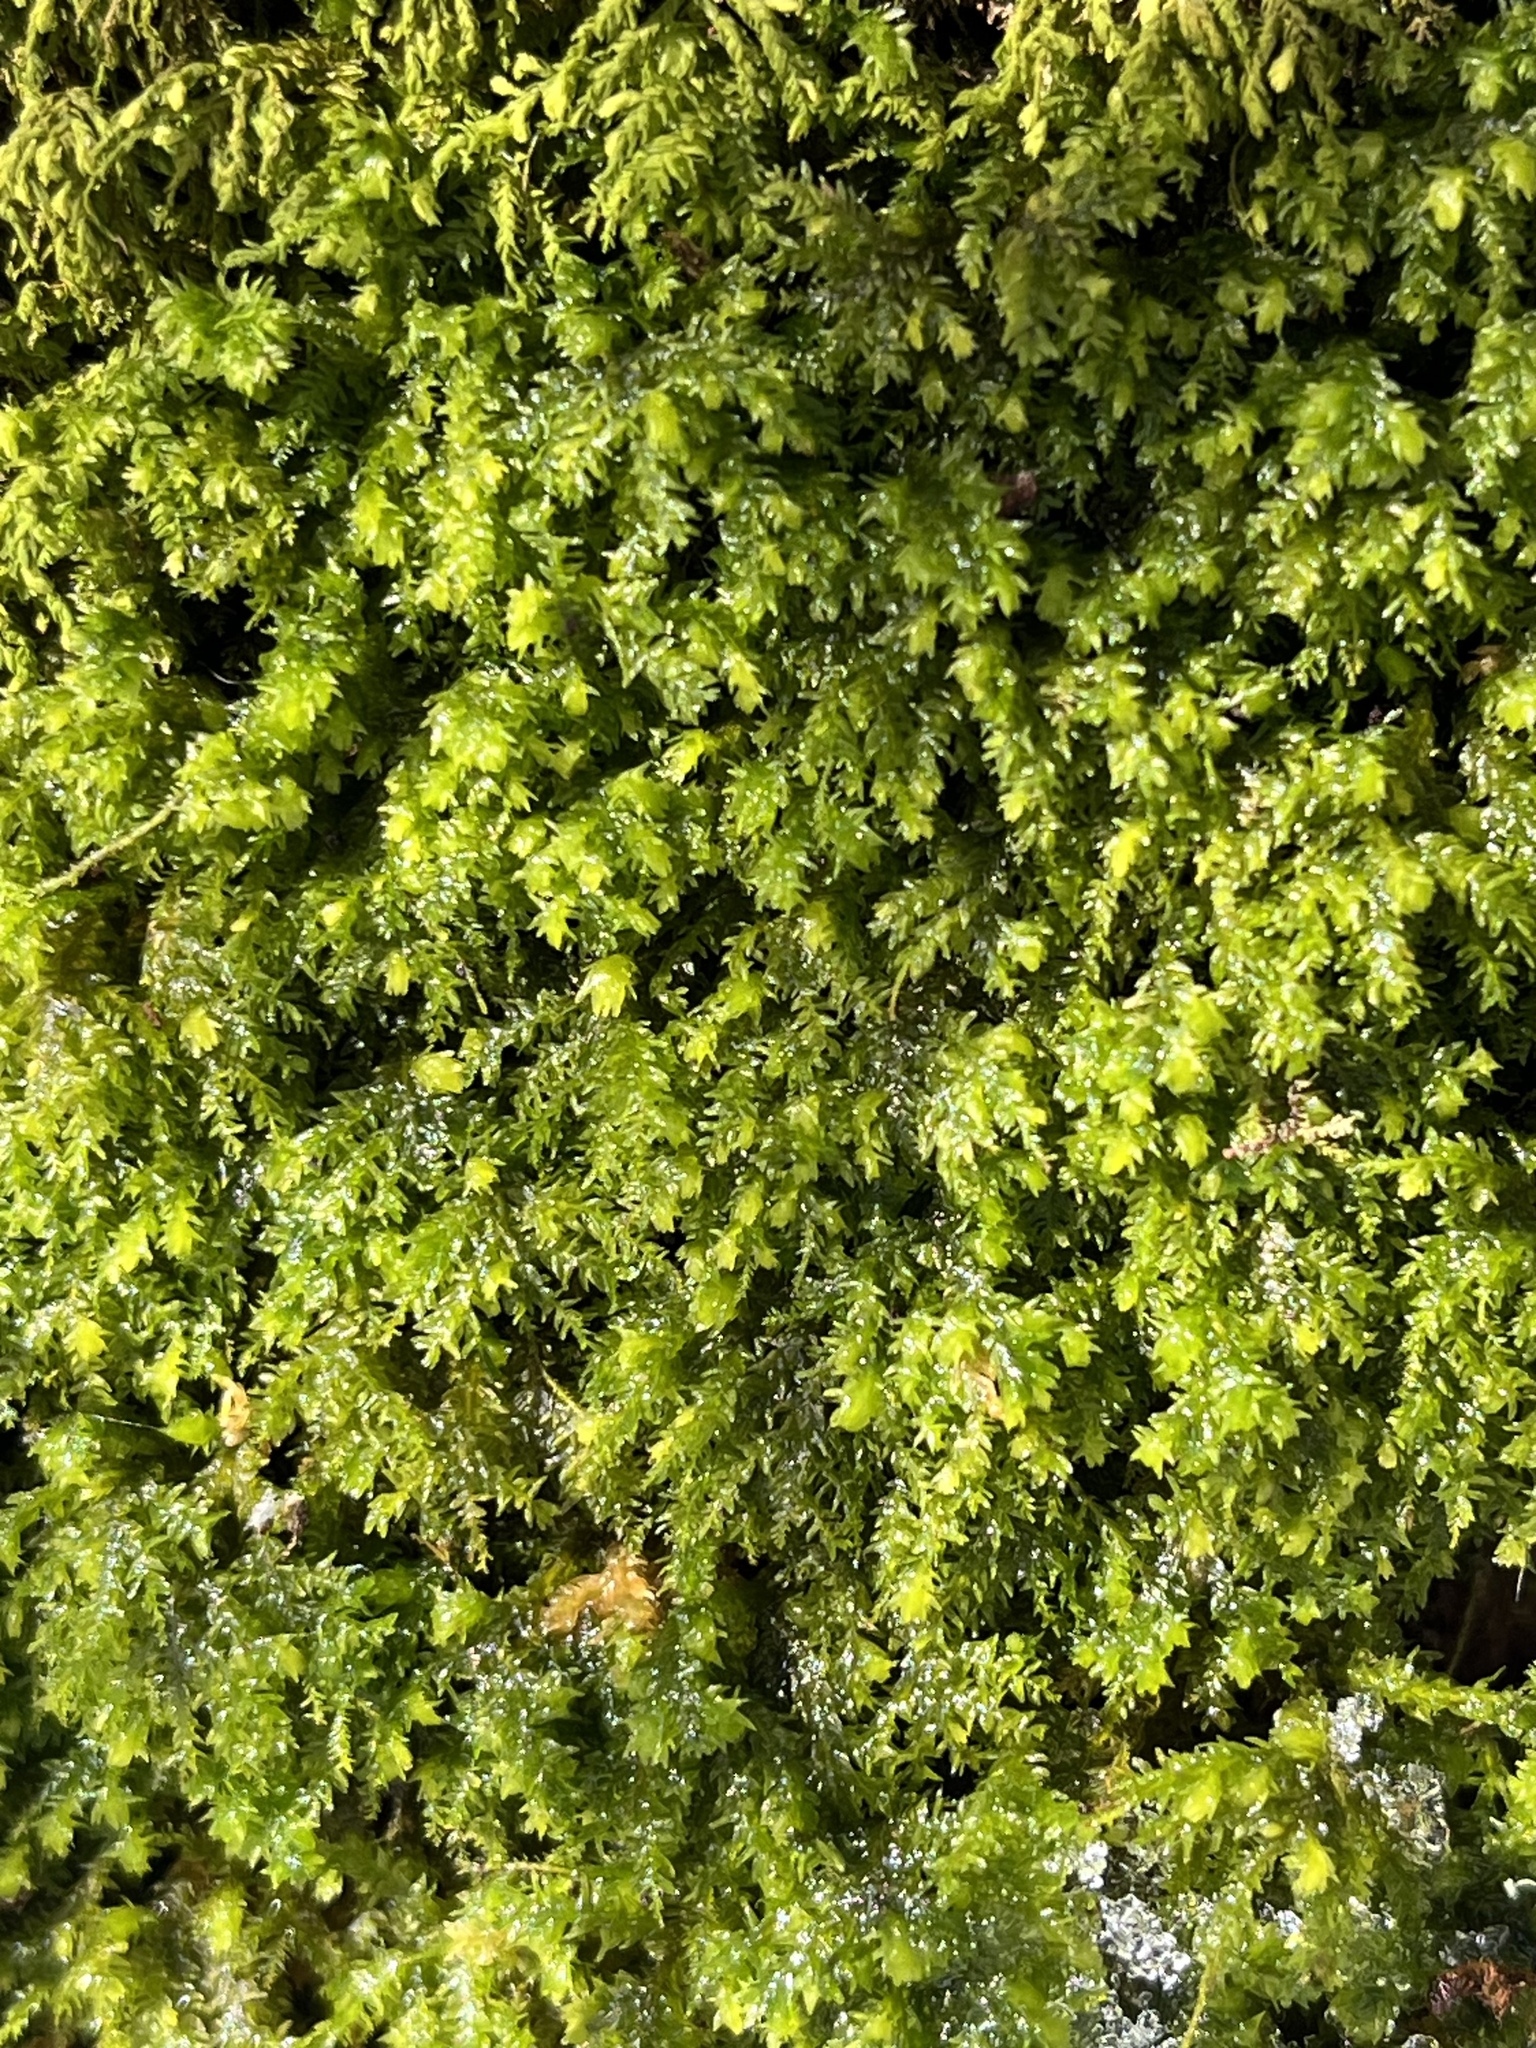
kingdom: Plantae
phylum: Bryophyta
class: Bryopsida
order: Hypnales
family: Neckeraceae
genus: Pseudanomodon
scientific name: Pseudanomodon attenuatus
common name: Tree-skirt moss
